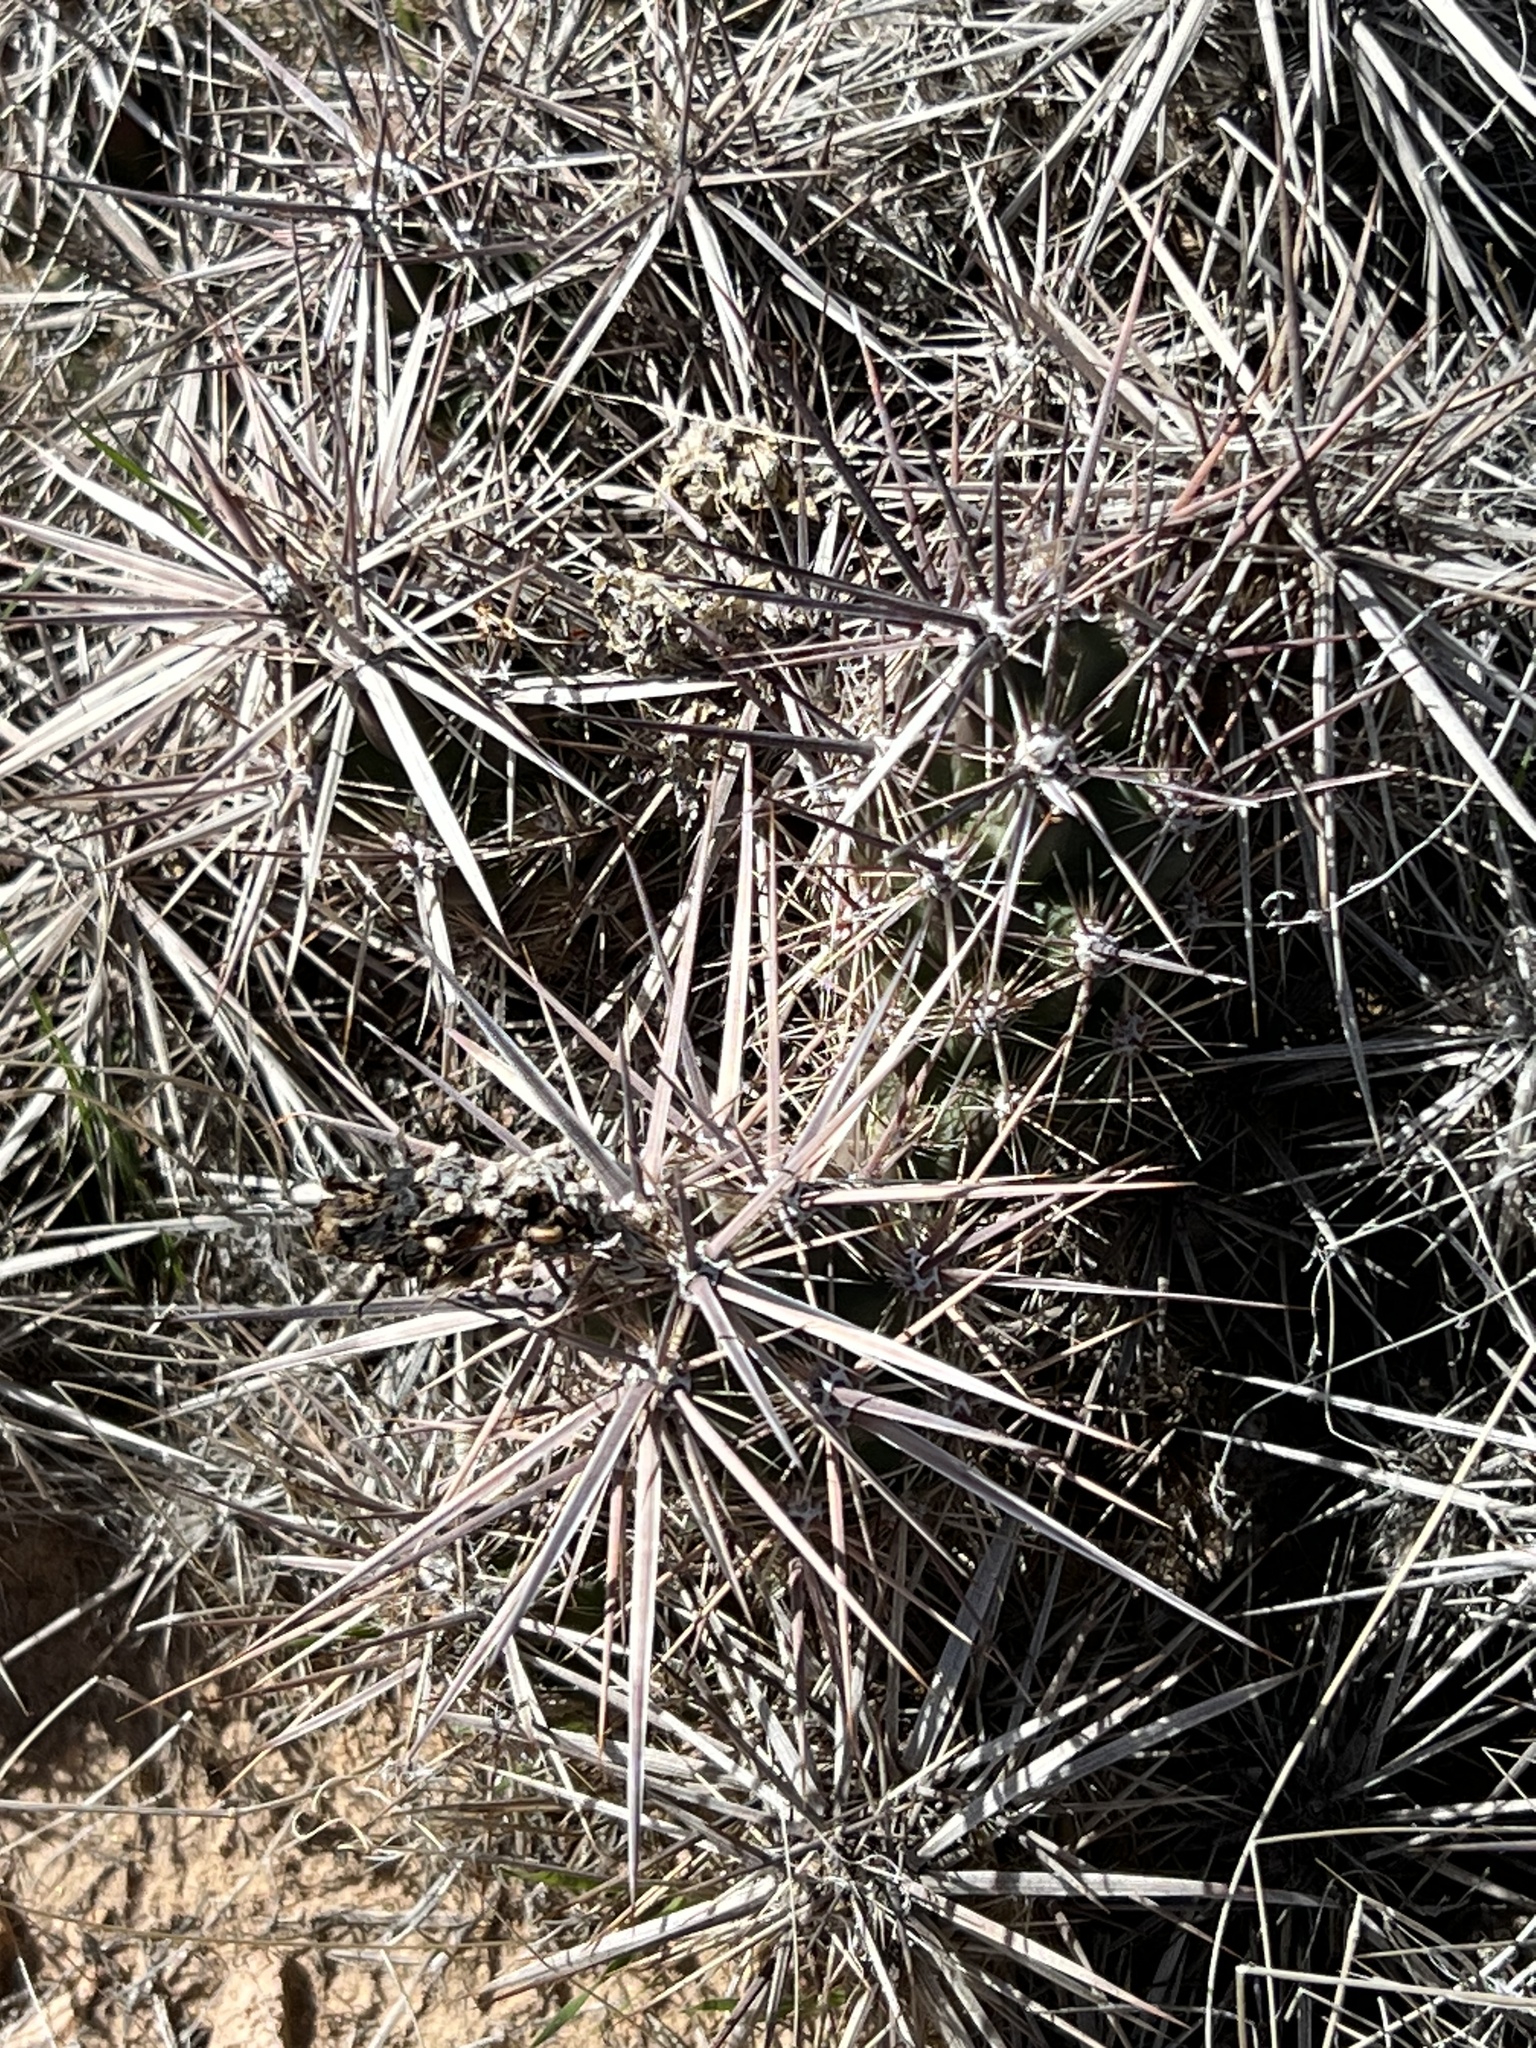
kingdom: Plantae
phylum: Tracheophyta
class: Magnoliopsida
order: Caryophyllales
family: Cactaceae
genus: Grusonia
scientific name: Grusonia parishiorum
